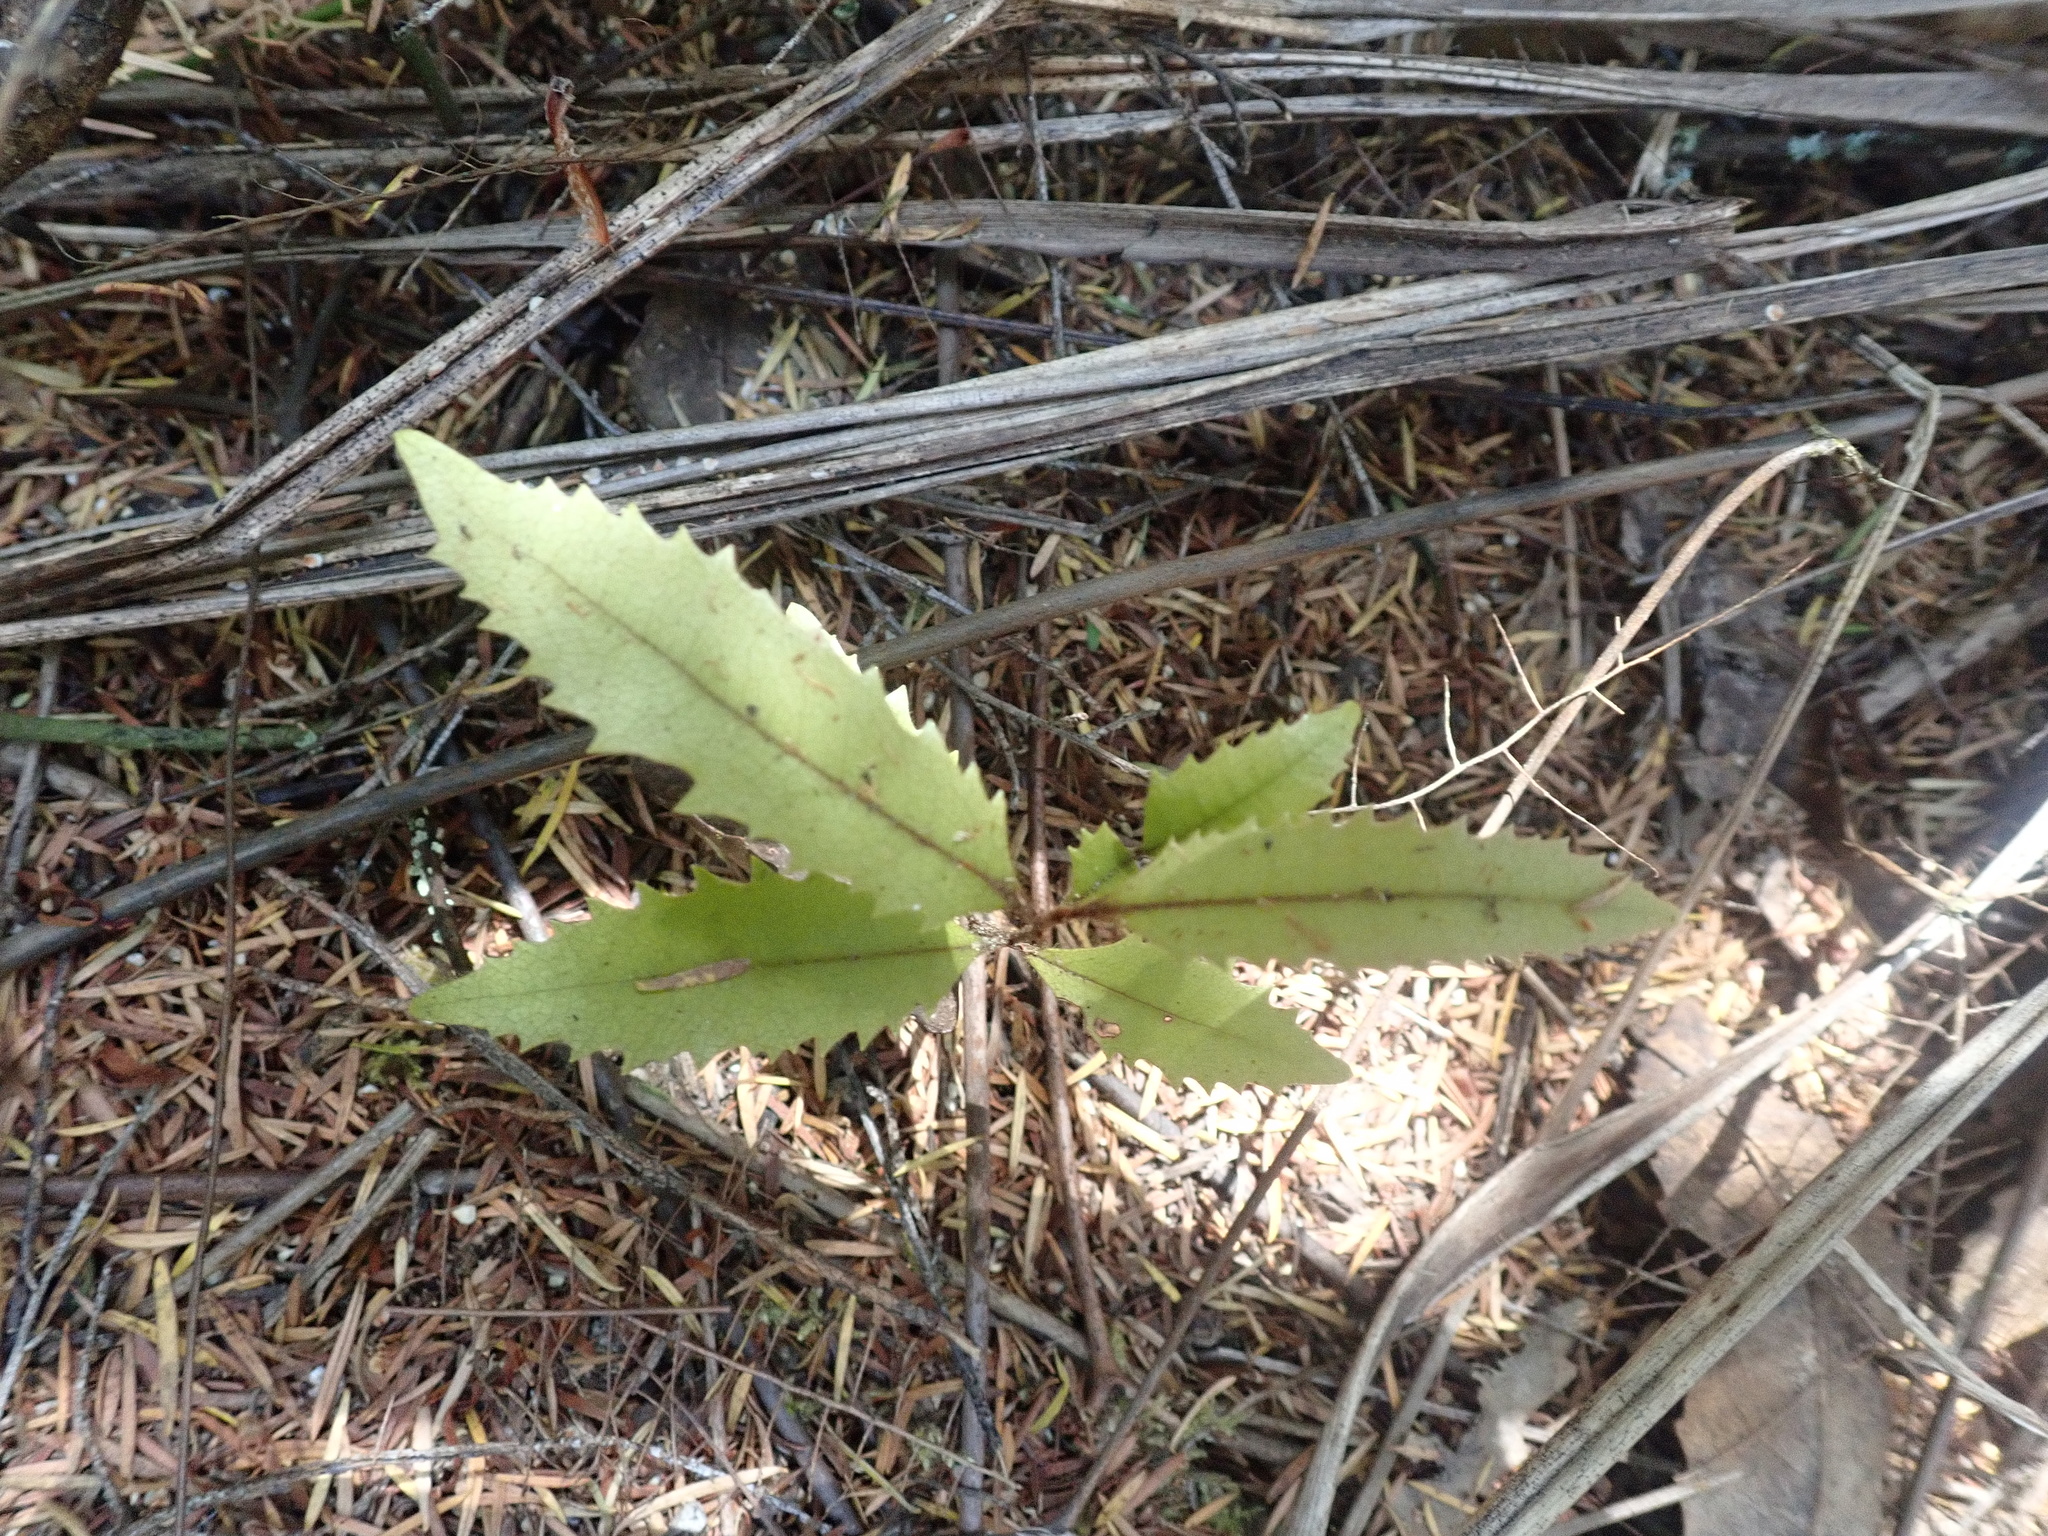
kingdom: Plantae
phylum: Tracheophyta
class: Magnoliopsida
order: Proteales
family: Proteaceae
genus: Knightia
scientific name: Knightia excelsa
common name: New zealand-honeysuckle
